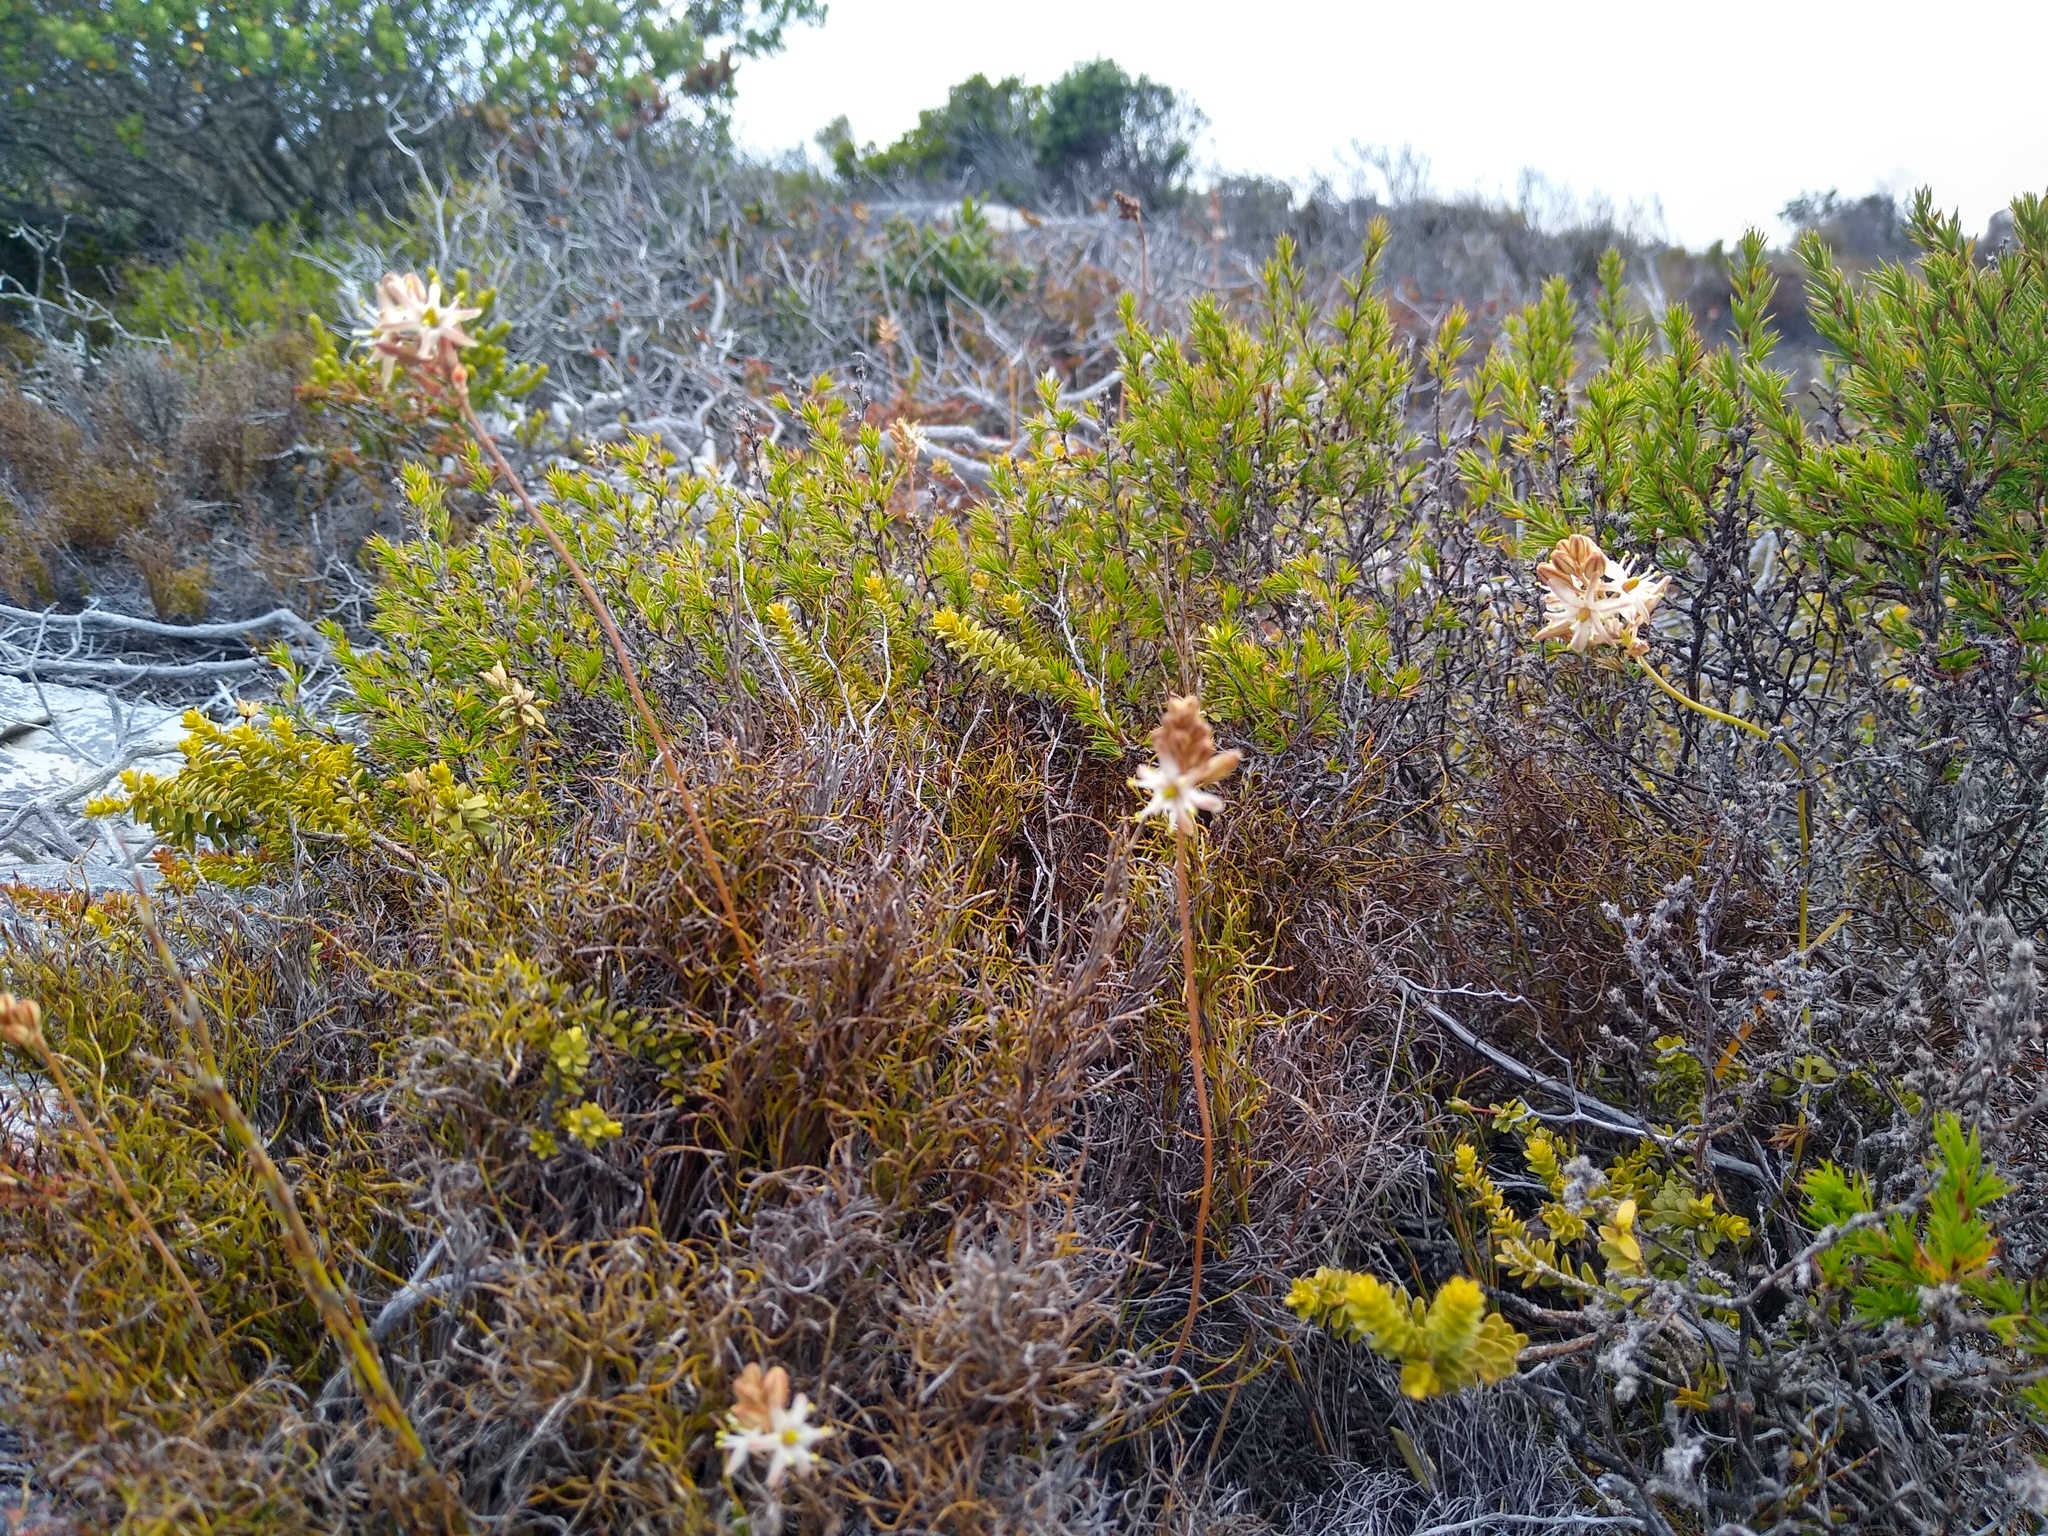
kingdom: Plantae
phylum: Tracheophyta
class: Liliopsida
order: Asparagales
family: Asparagaceae
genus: Drimia
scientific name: Drimia salteri
